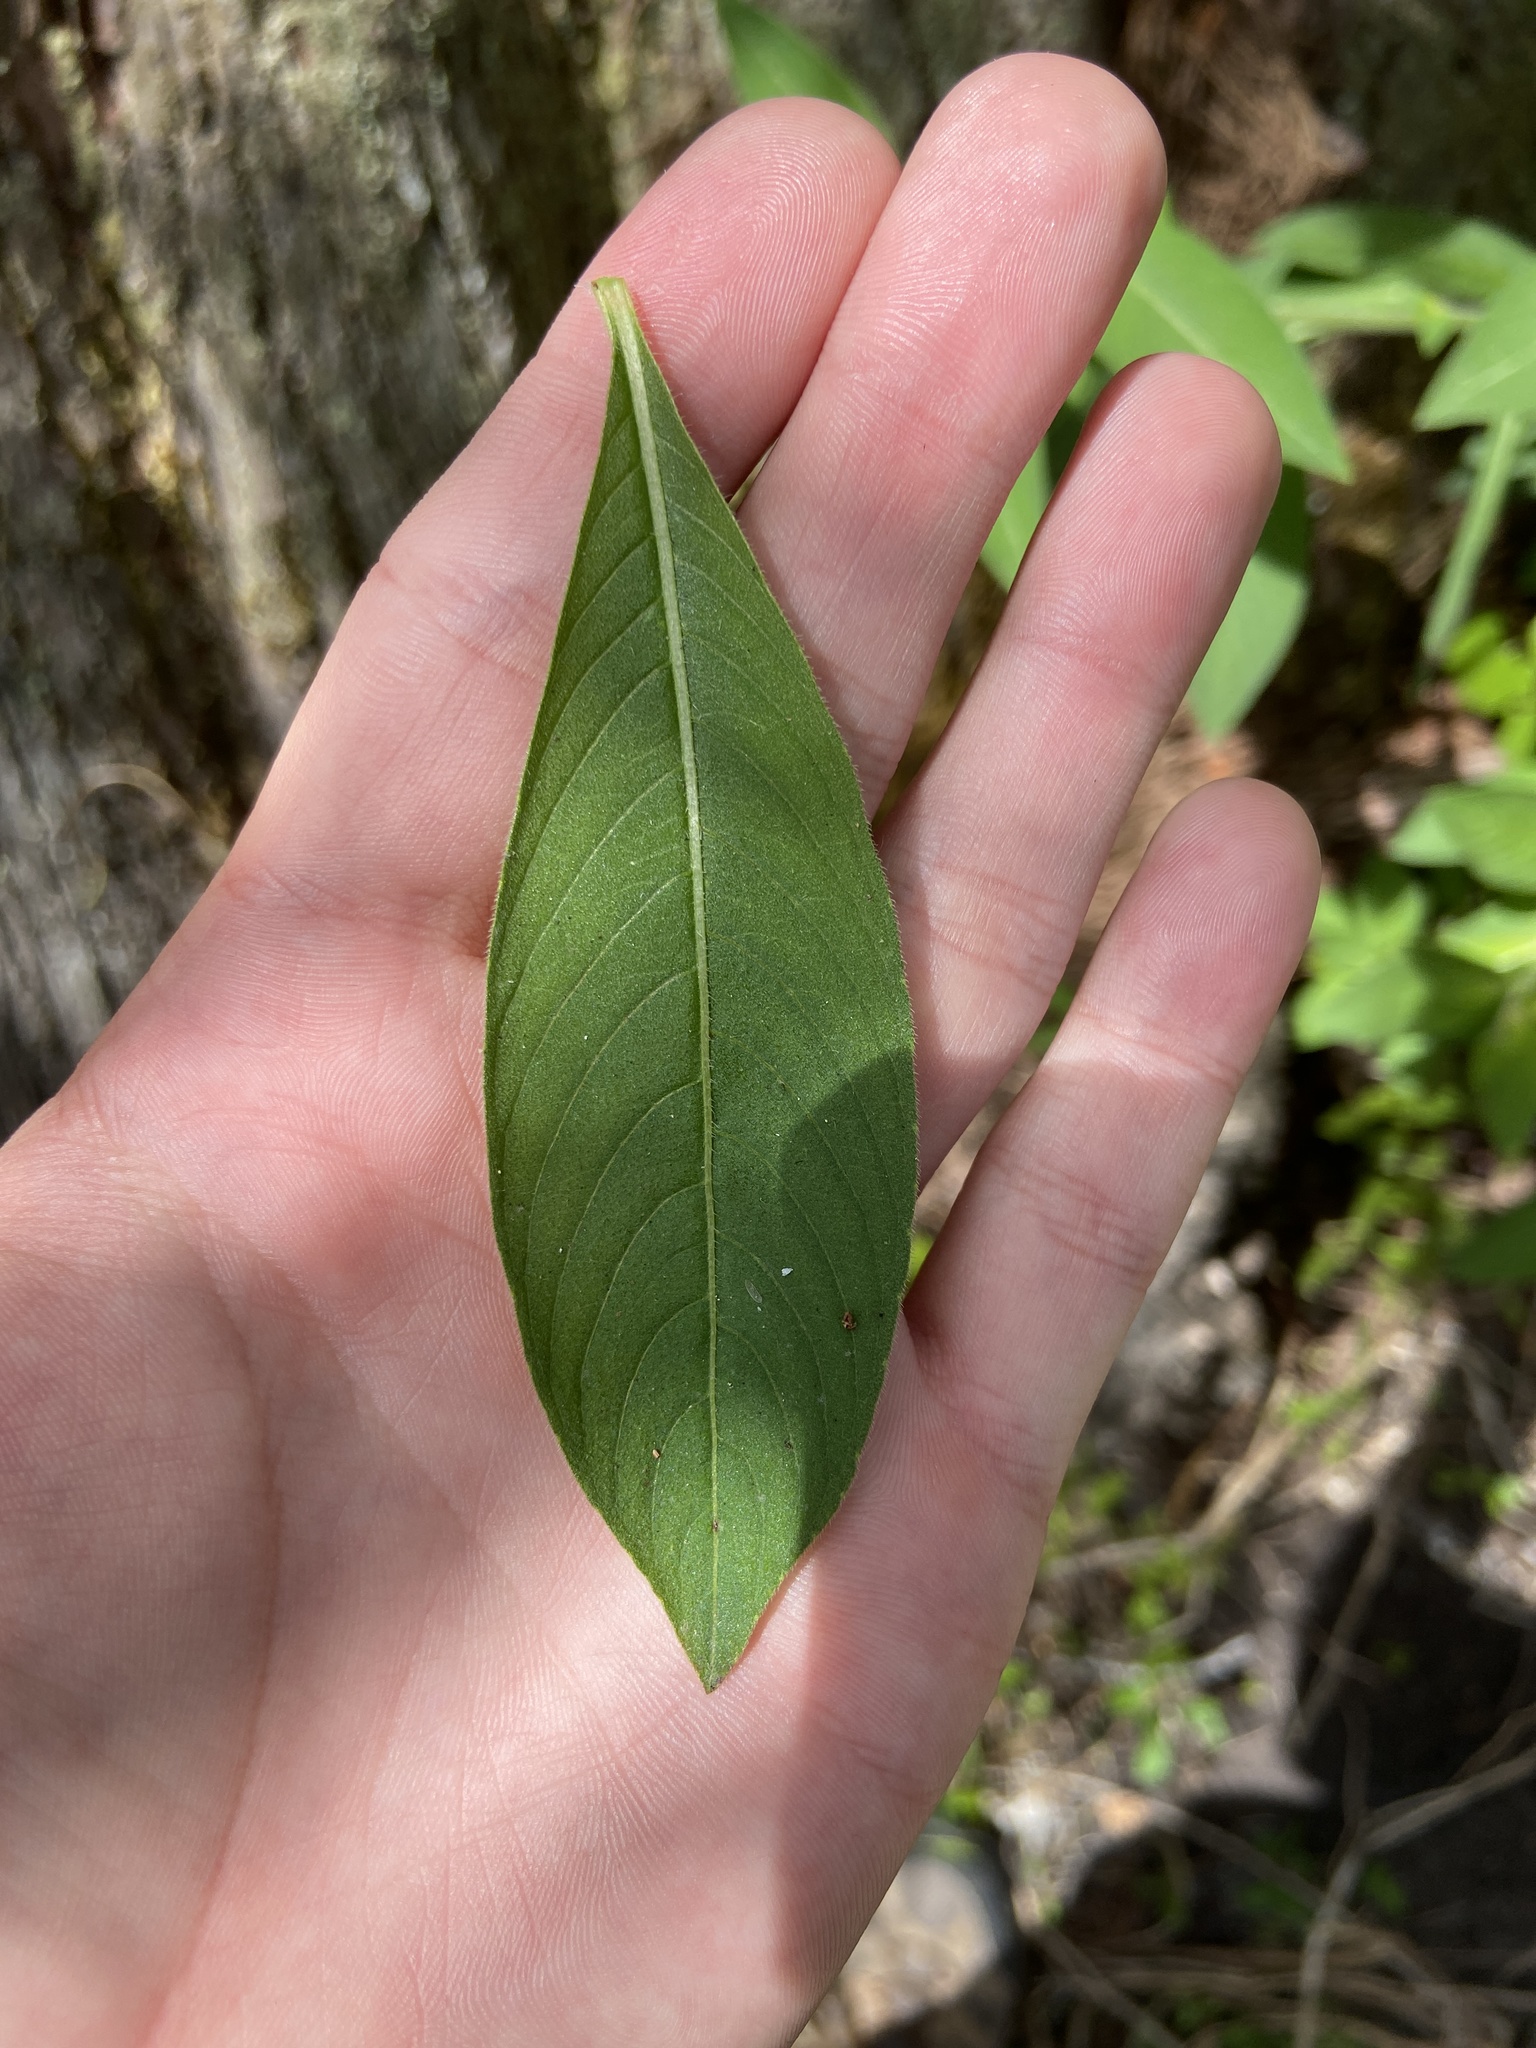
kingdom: Plantae
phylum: Tracheophyta
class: Magnoliopsida
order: Myrtales
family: Onagraceae
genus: Ludwigia
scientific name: Ludwigia peruviana
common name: Peruvian primrose-willow
